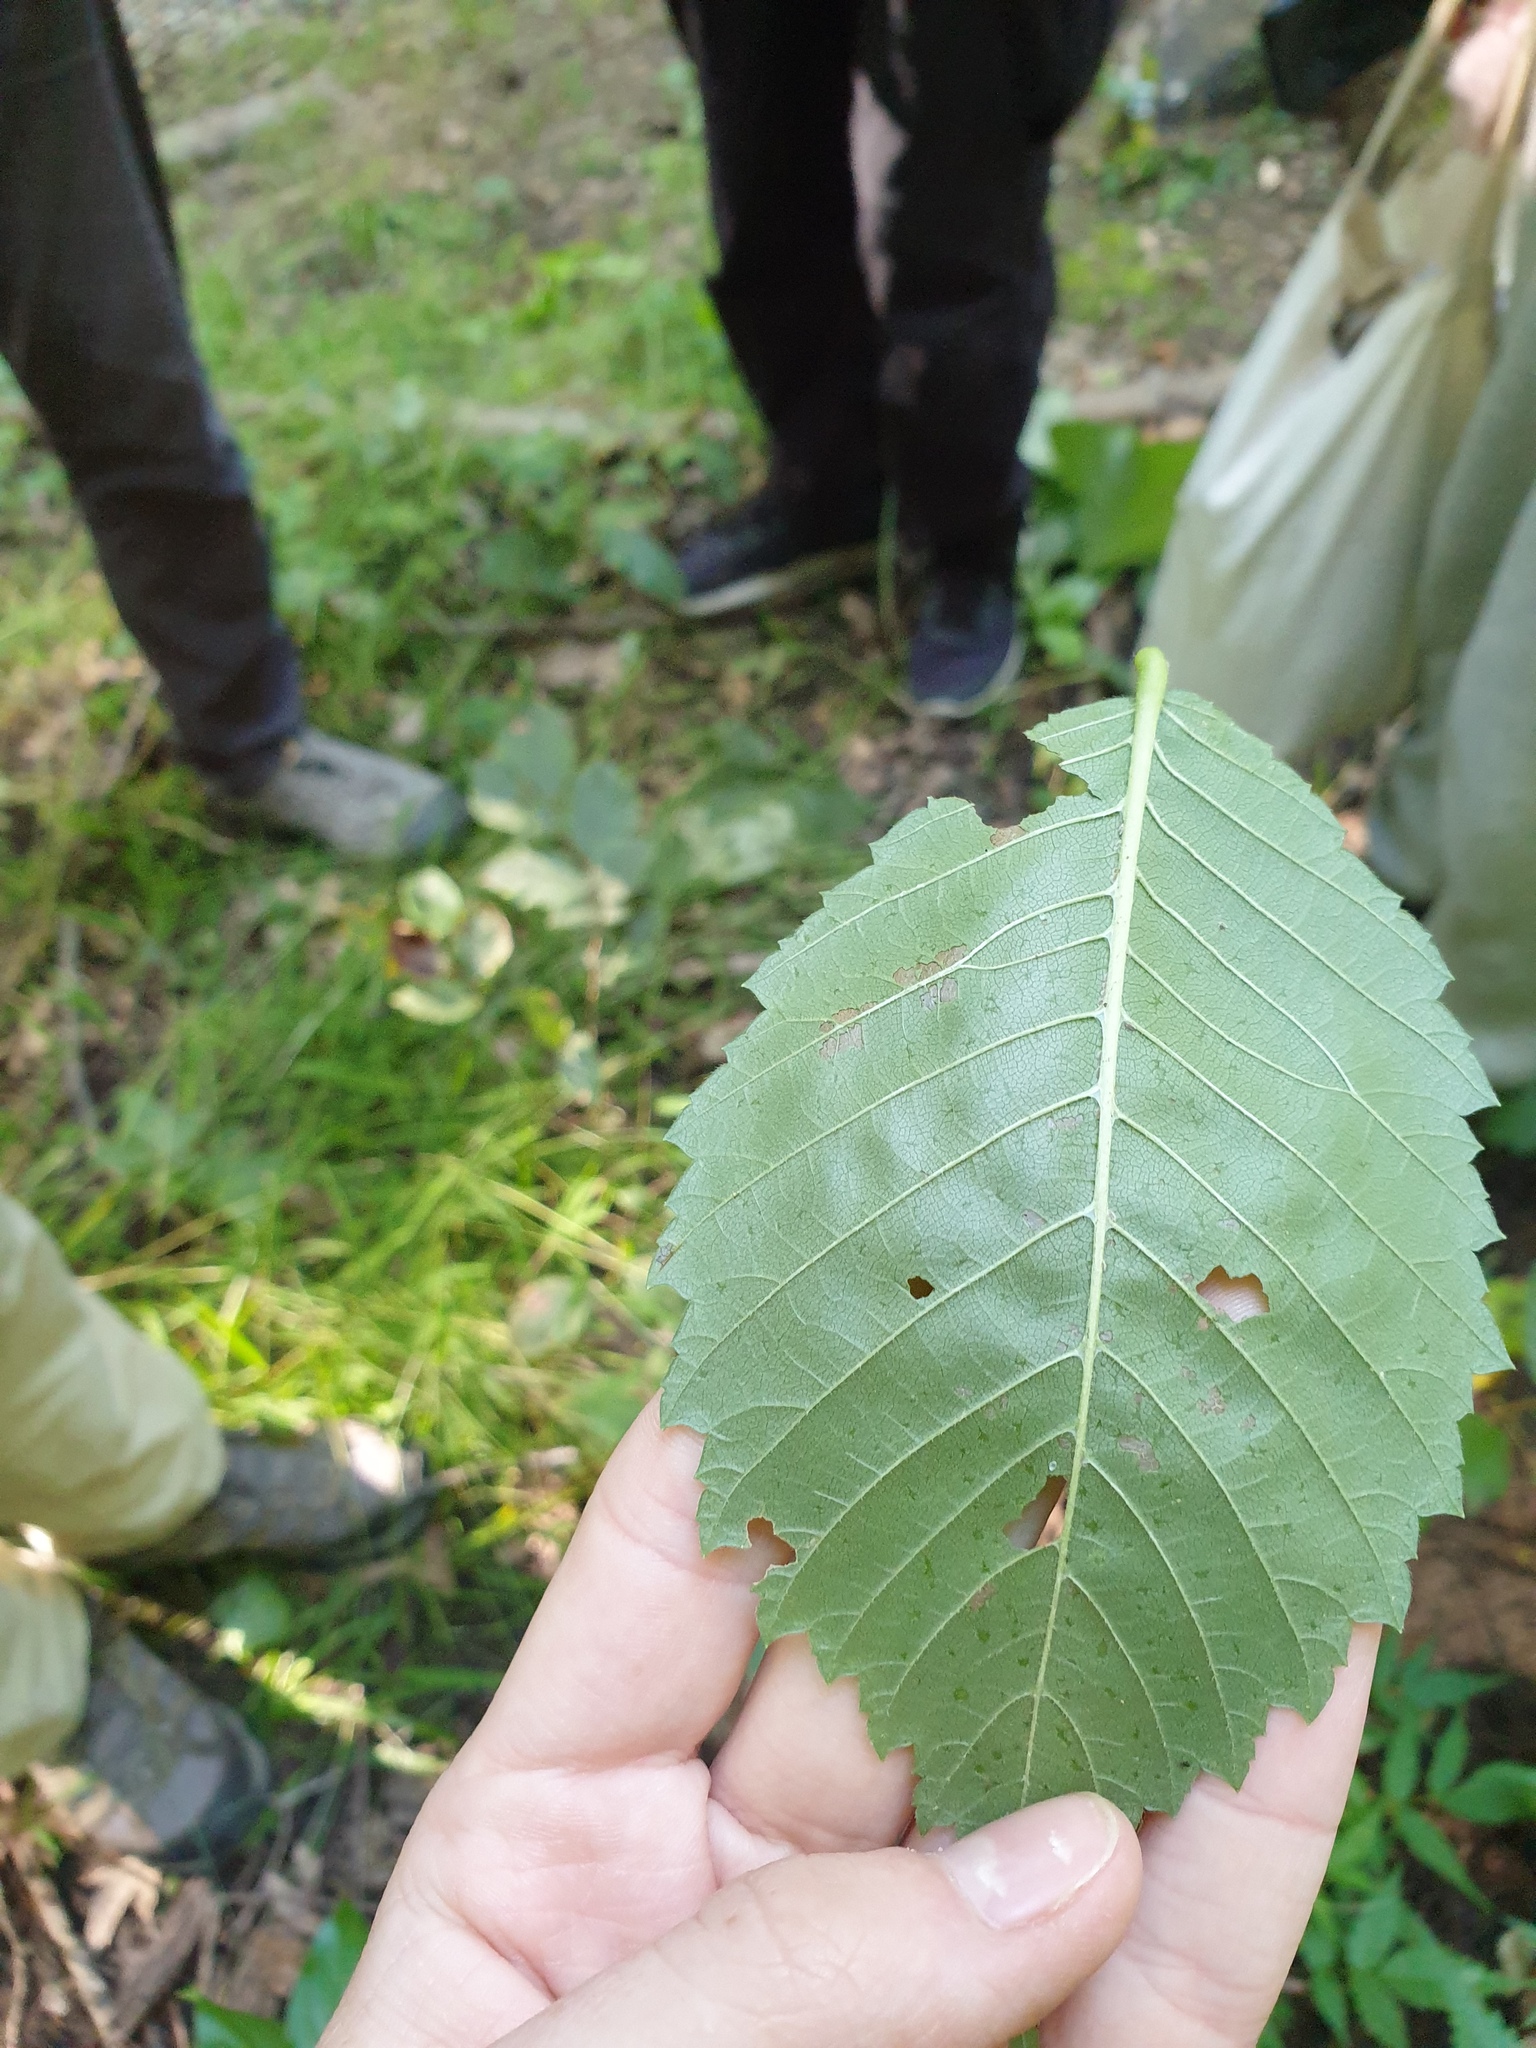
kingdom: Plantae
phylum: Tracheophyta
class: Magnoliopsida
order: Rosales
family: Ulmaceae
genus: Ulmus
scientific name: Ulmus americana
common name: American elm
